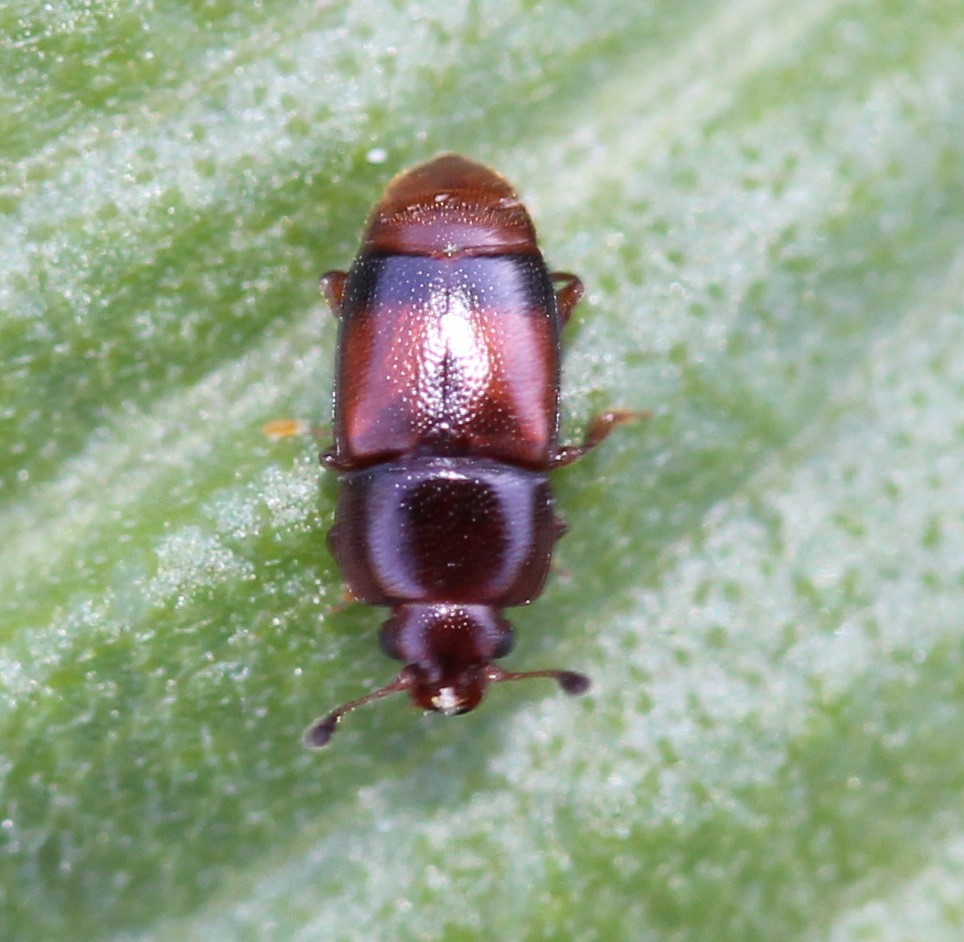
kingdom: Animalia
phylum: Arthropoda
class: Insecta
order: Coleoptera
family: Nitidulidae
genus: Carpophilus
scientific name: Carpophilus antiquus
